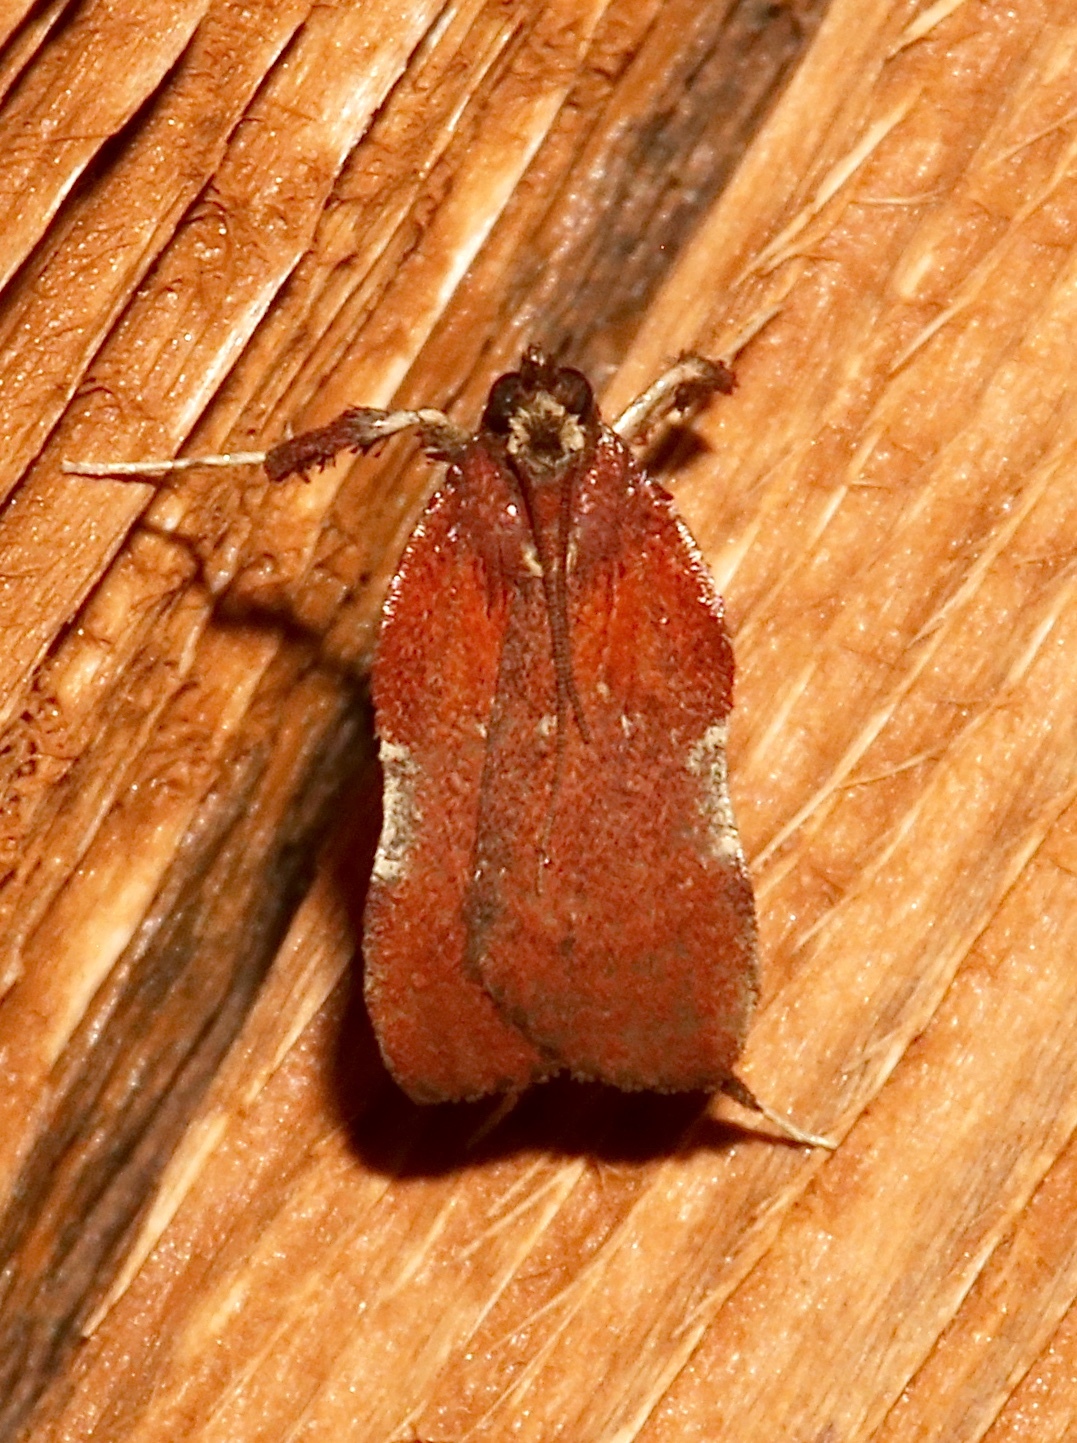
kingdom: Animalia
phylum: Arthropoda
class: Insecta
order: Lepidoptera
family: Pyralidae
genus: Galasa
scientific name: Galasa nigrinodis
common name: Boxwood leaftier moth
